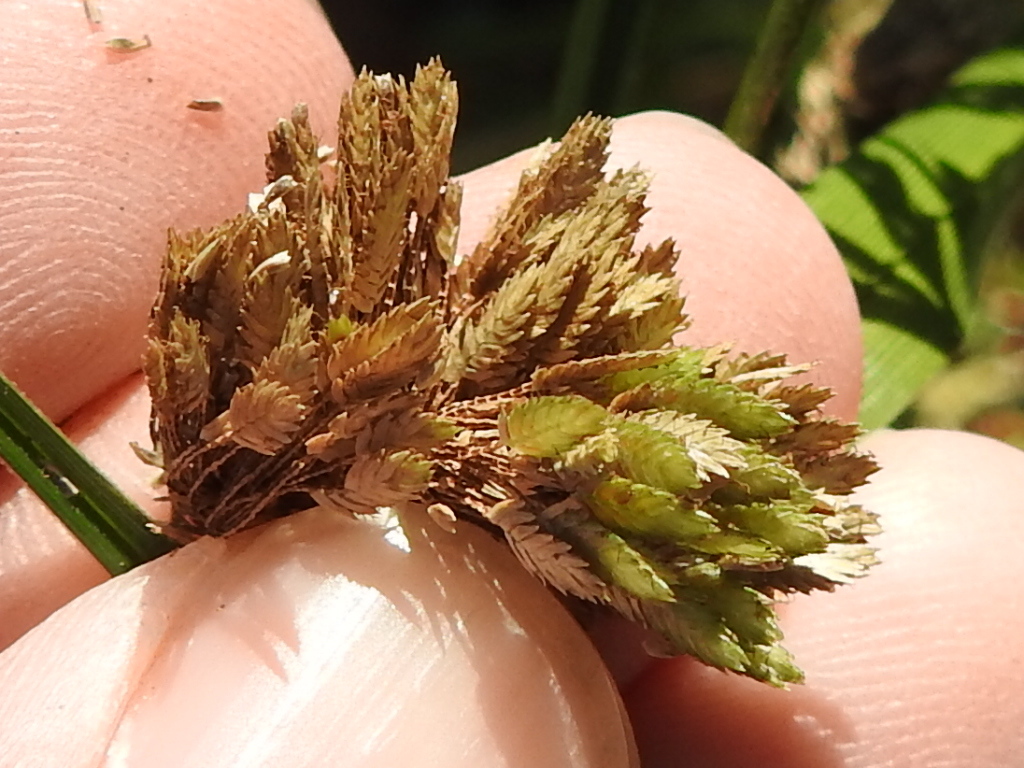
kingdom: Plantae
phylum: Tracheophyta
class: Liliopsida
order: Poales
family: Cyperaceae
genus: Cyperus
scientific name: Cyperus entrerianus
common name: Woodrush flatsedge
